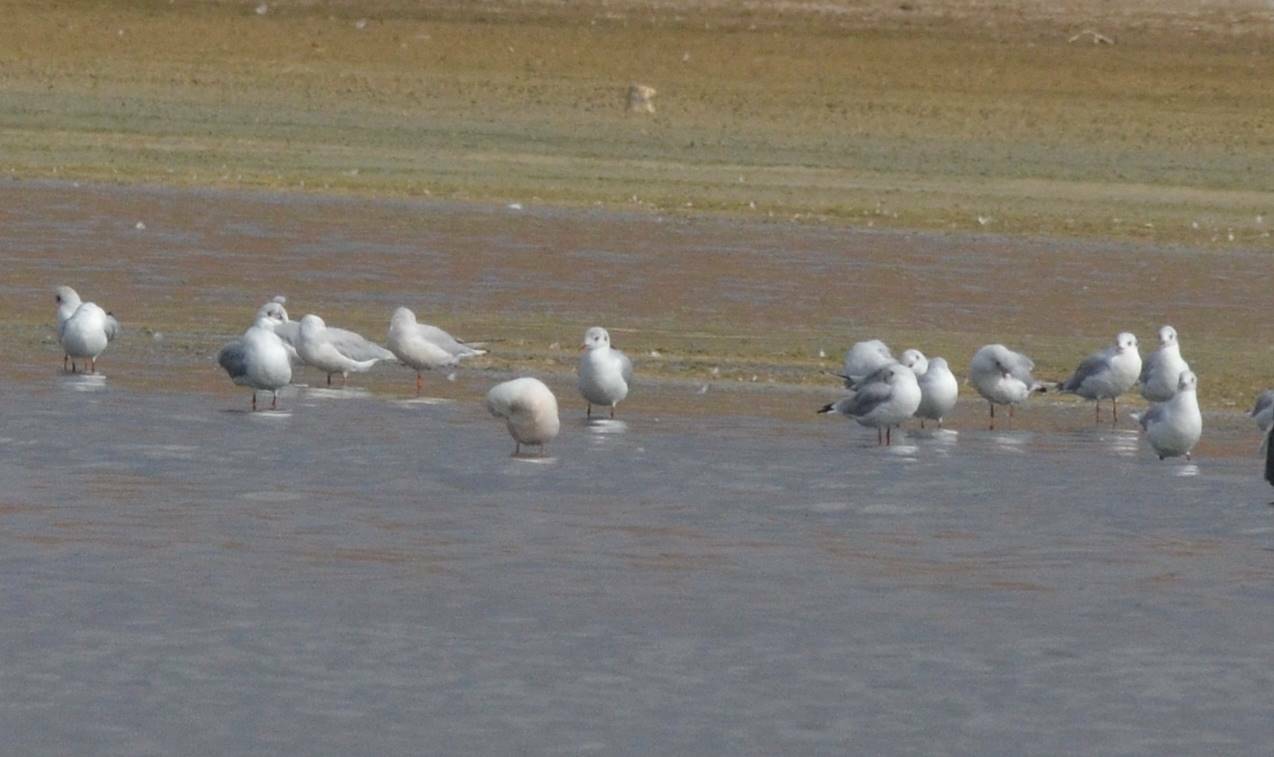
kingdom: Animalia
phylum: Chordata
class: Aves
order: Charadriiformes
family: Laridae
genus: Chroicocephalus
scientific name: Chroicocephalus ridibundus
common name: Black-headed gull
